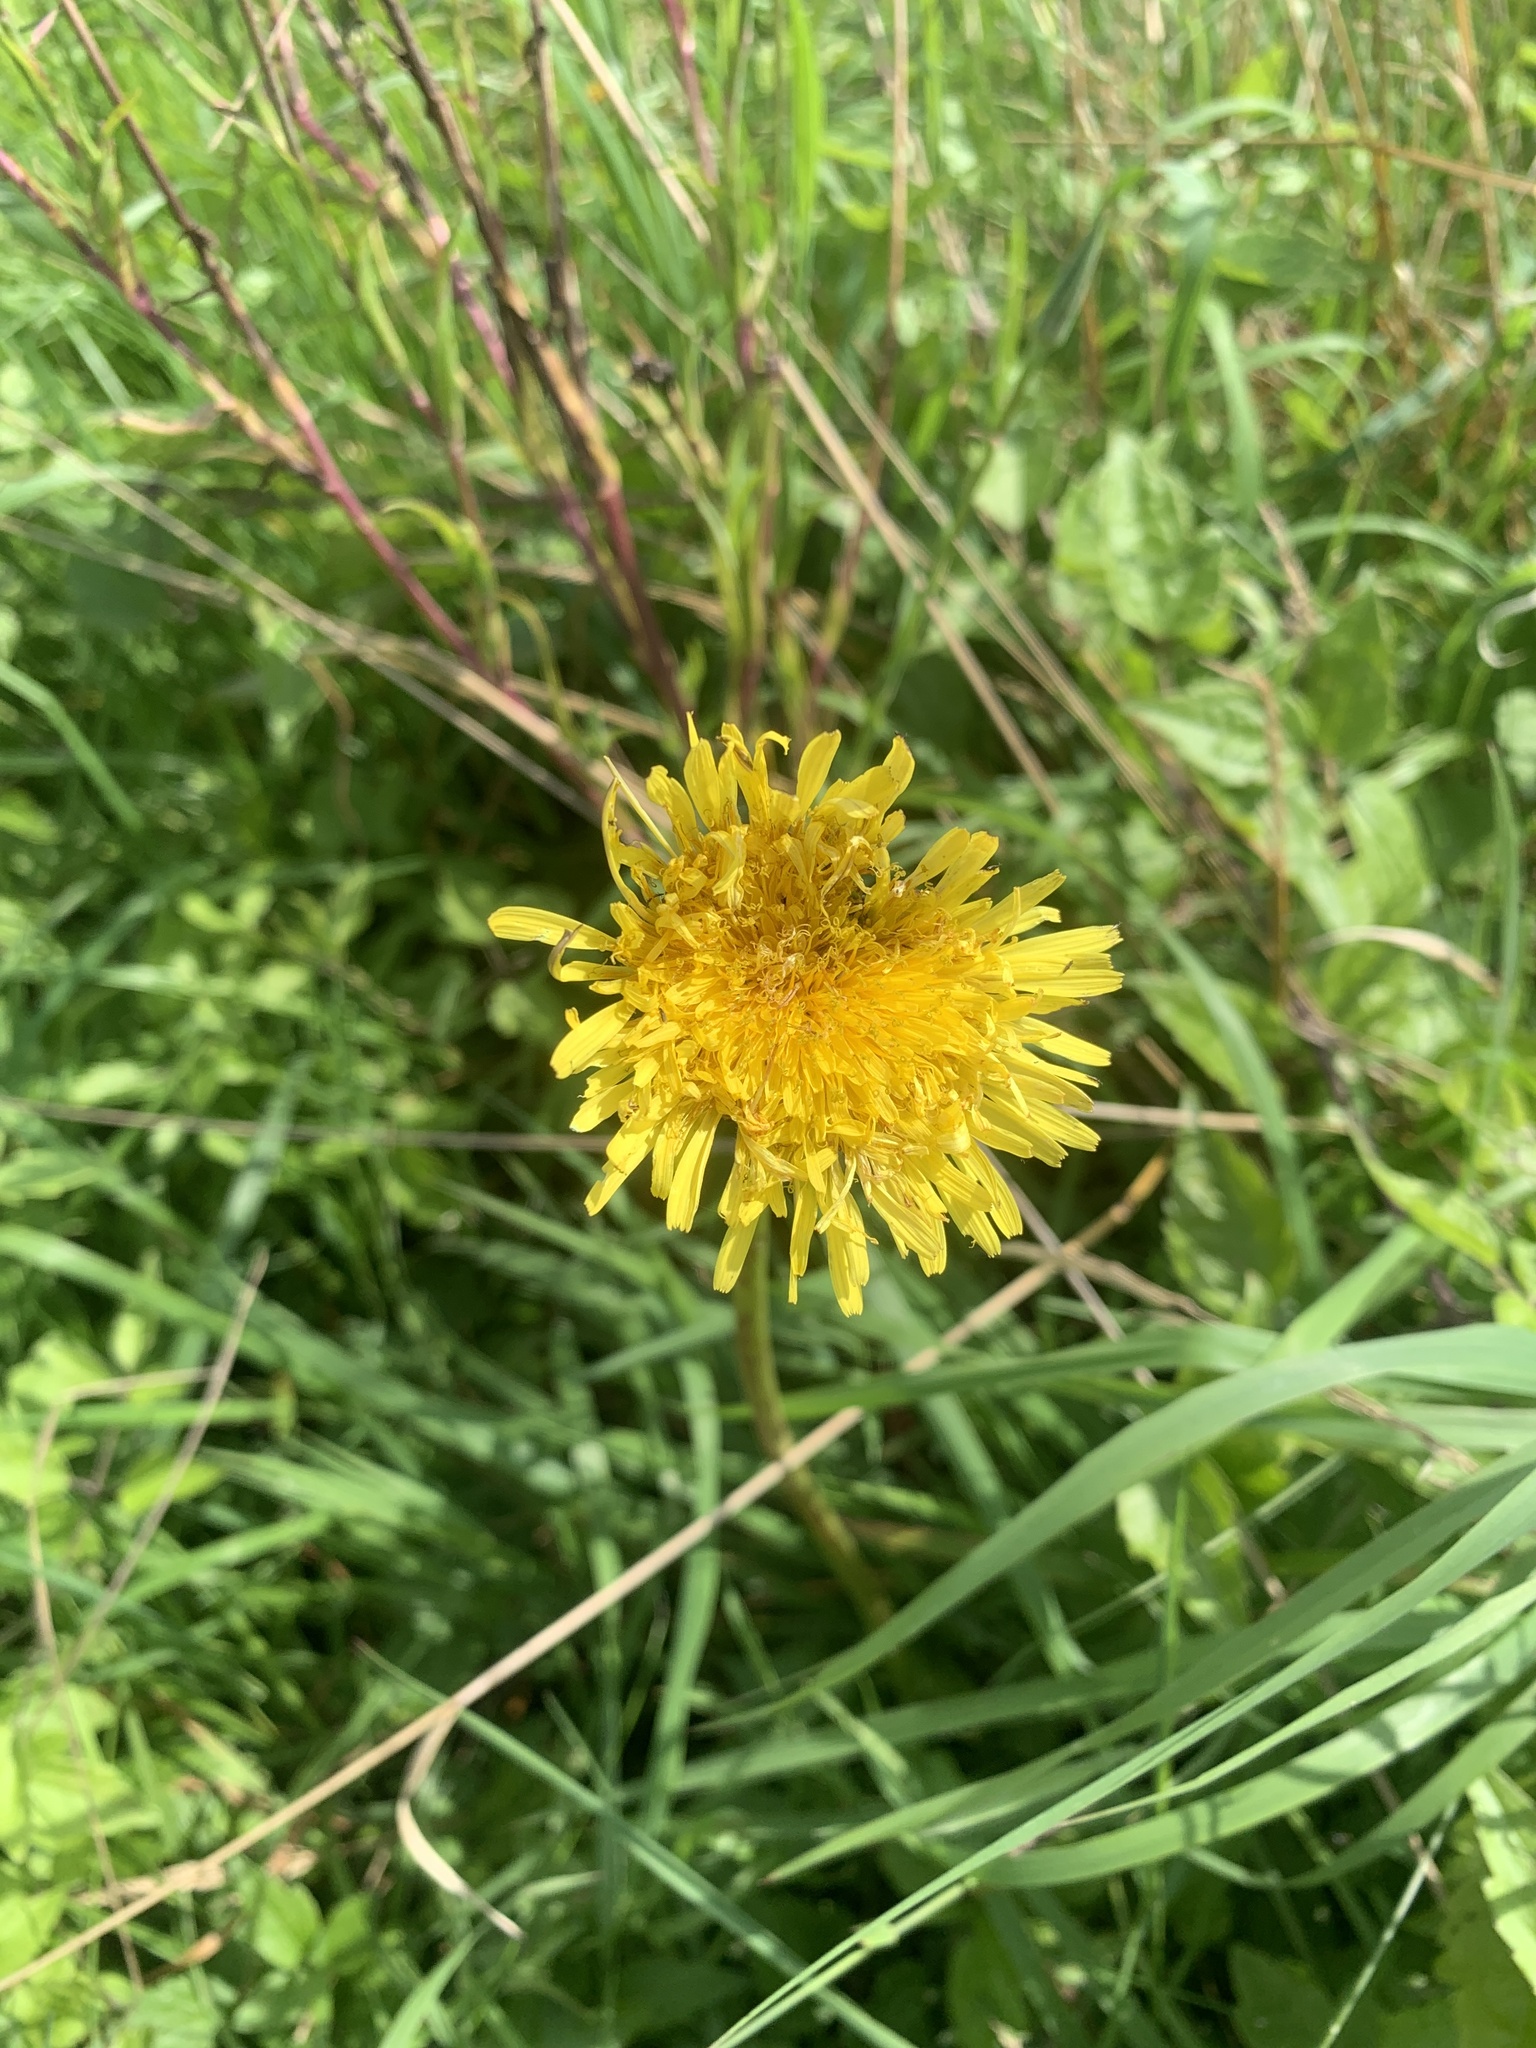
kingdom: Plantae
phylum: Tracheophyta
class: Magnoliopsida
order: Asterales
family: Asteraceae
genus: Taraxacum
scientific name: Taraxacum officinale
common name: Common dandelion
